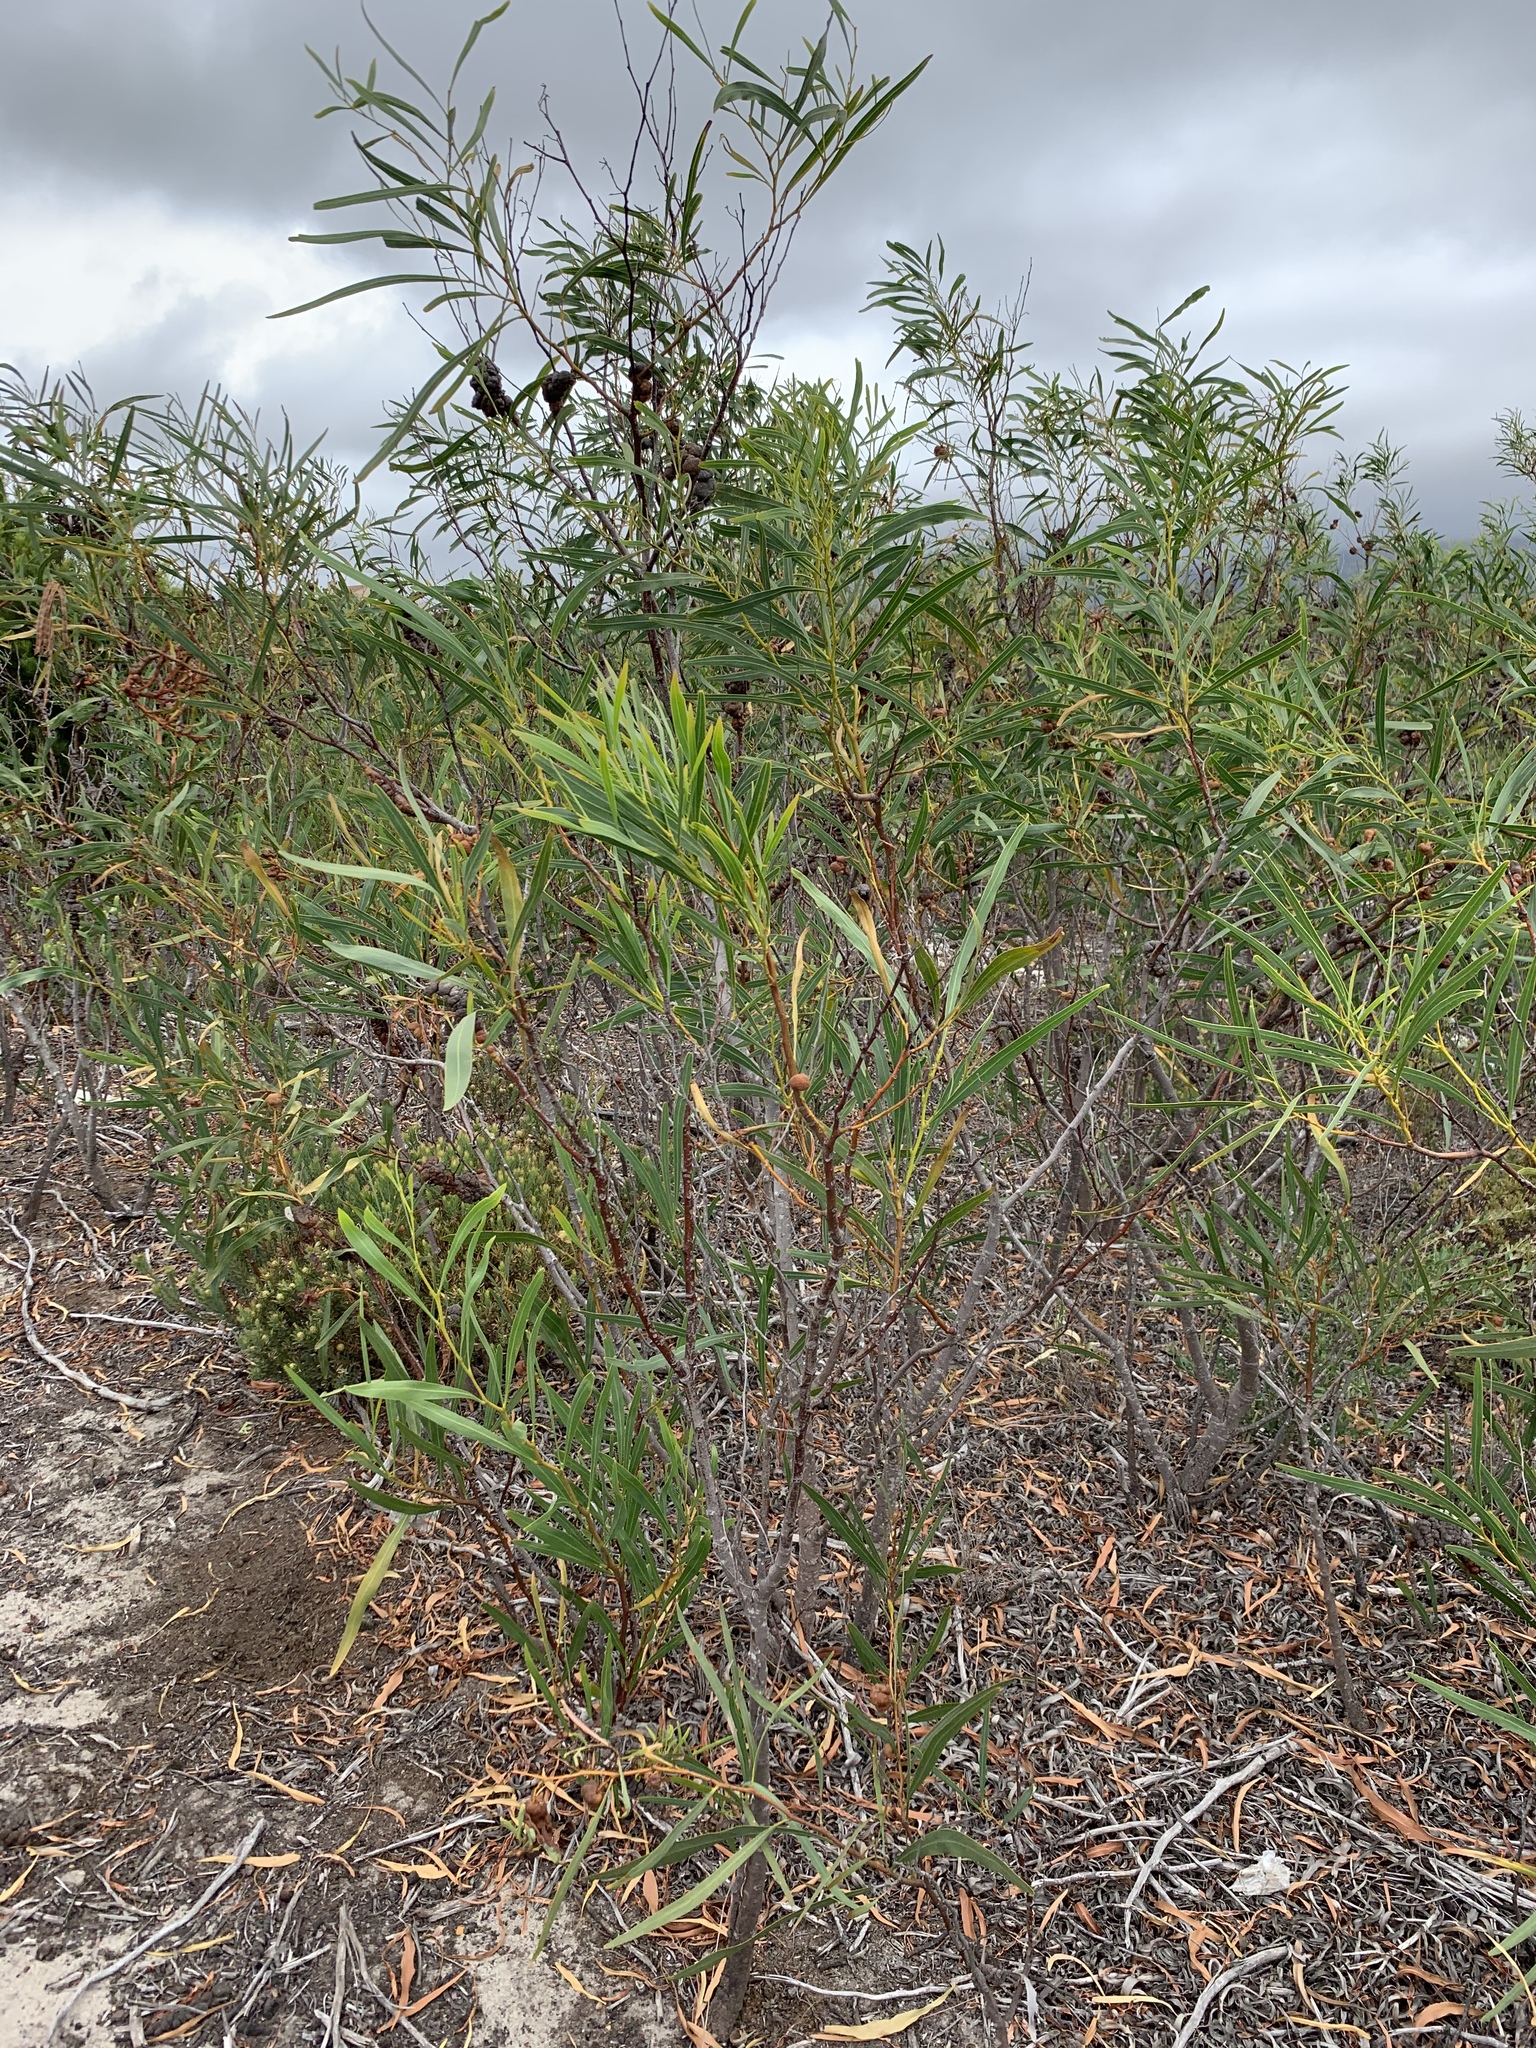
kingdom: Plantae
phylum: Tracheophyta
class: Magnoliopsida
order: Fabales
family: Fabaceae
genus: Acacia
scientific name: Acacia saligna
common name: Orange wattle
